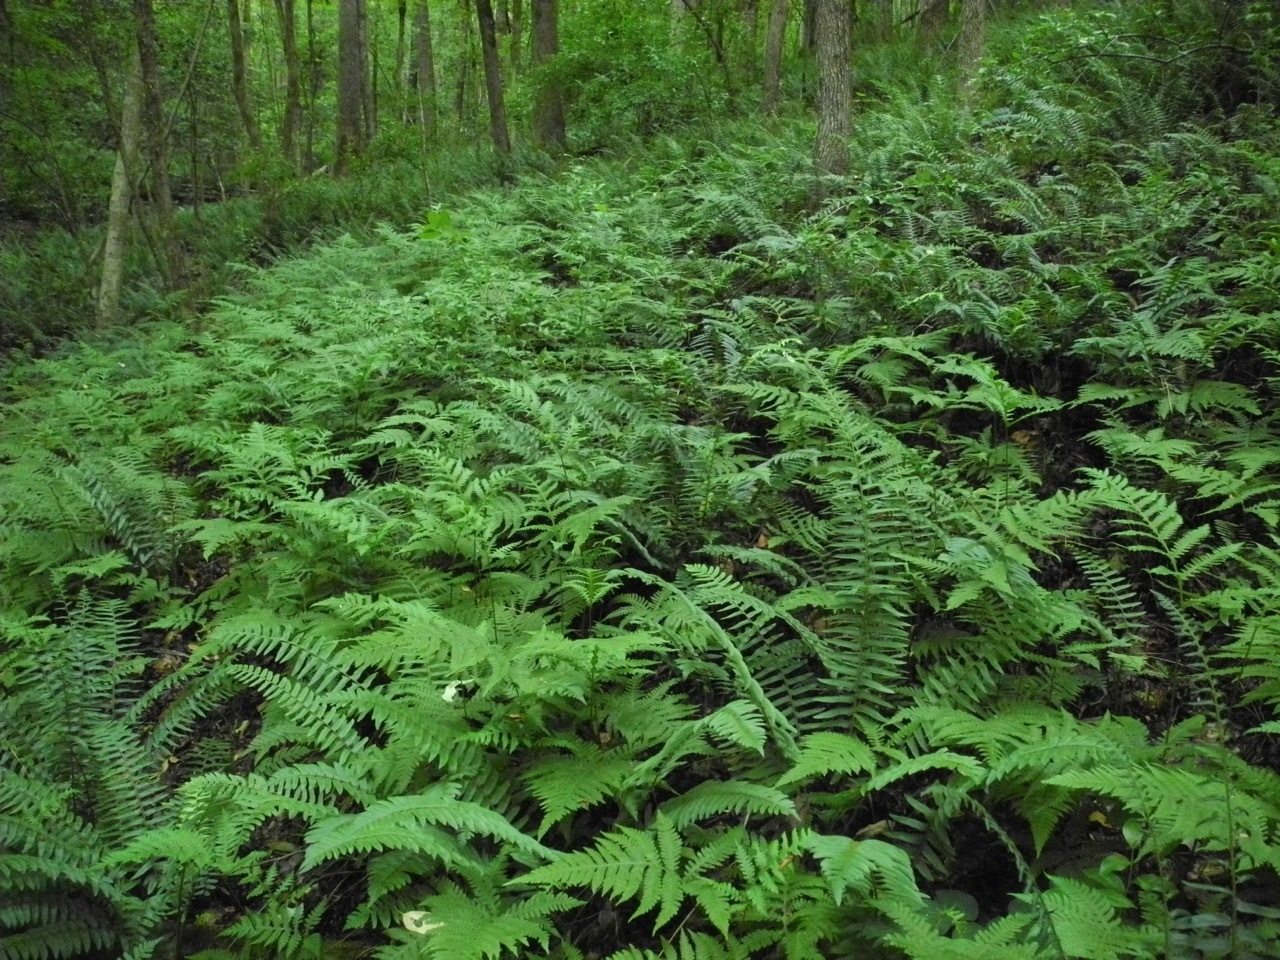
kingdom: Plantae
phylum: Tracheophyta
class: Polypodiopsida
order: Polypodiales
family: Thelypteridaceae
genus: Phegopteris
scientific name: Phegopteris hexagonoptera
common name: Broad beech fern
